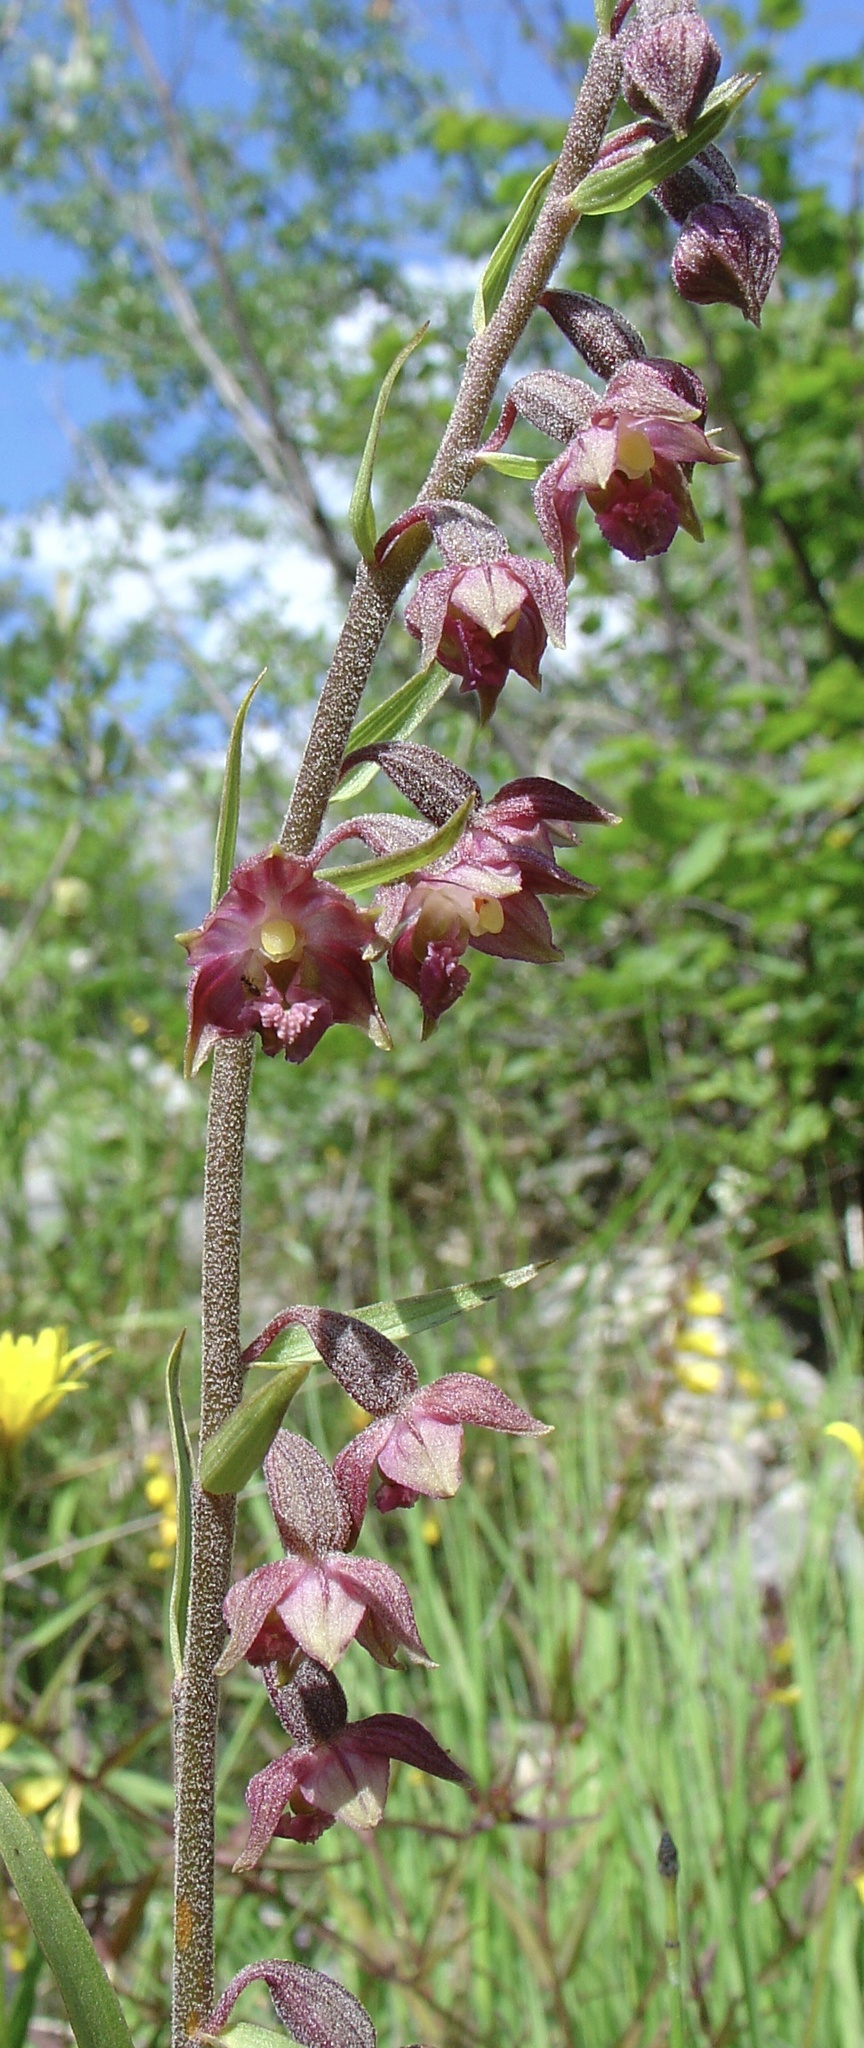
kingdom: Plantae
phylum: Tracheophyta
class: Liliopsida
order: Asparagales
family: Orchidaceae
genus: Epipactis
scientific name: Epipactis atrorubens
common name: Dark-red helleborine
